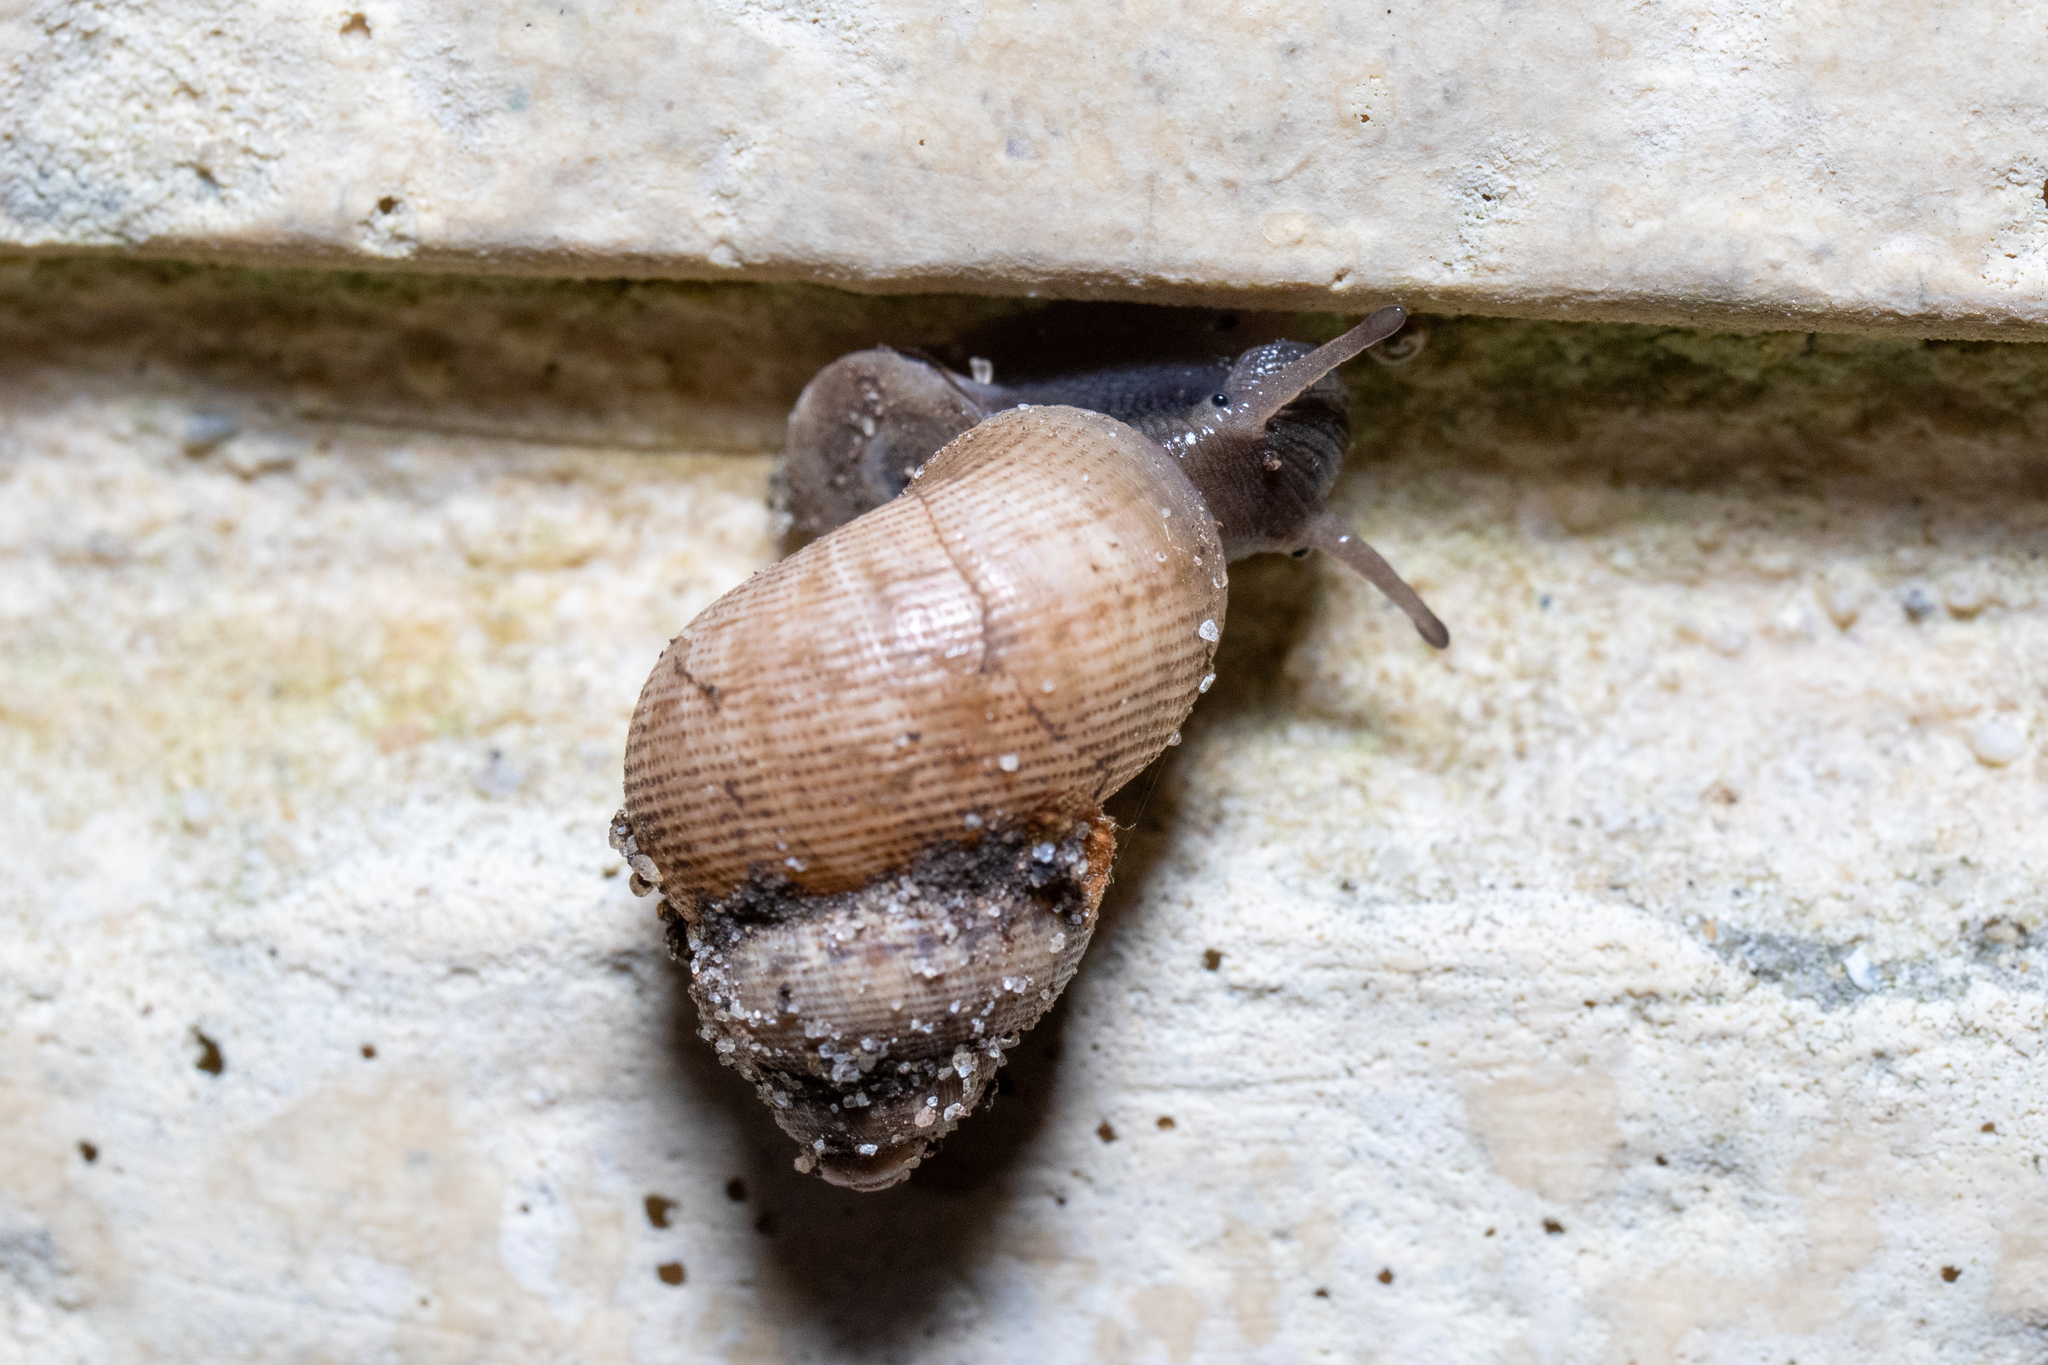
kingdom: Animalia
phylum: Mollusca
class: Gastropoda
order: Littorinimorpha
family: Pomatiidae
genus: Pomatias
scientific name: Pomatias elegans
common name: Red-mouthed snail
